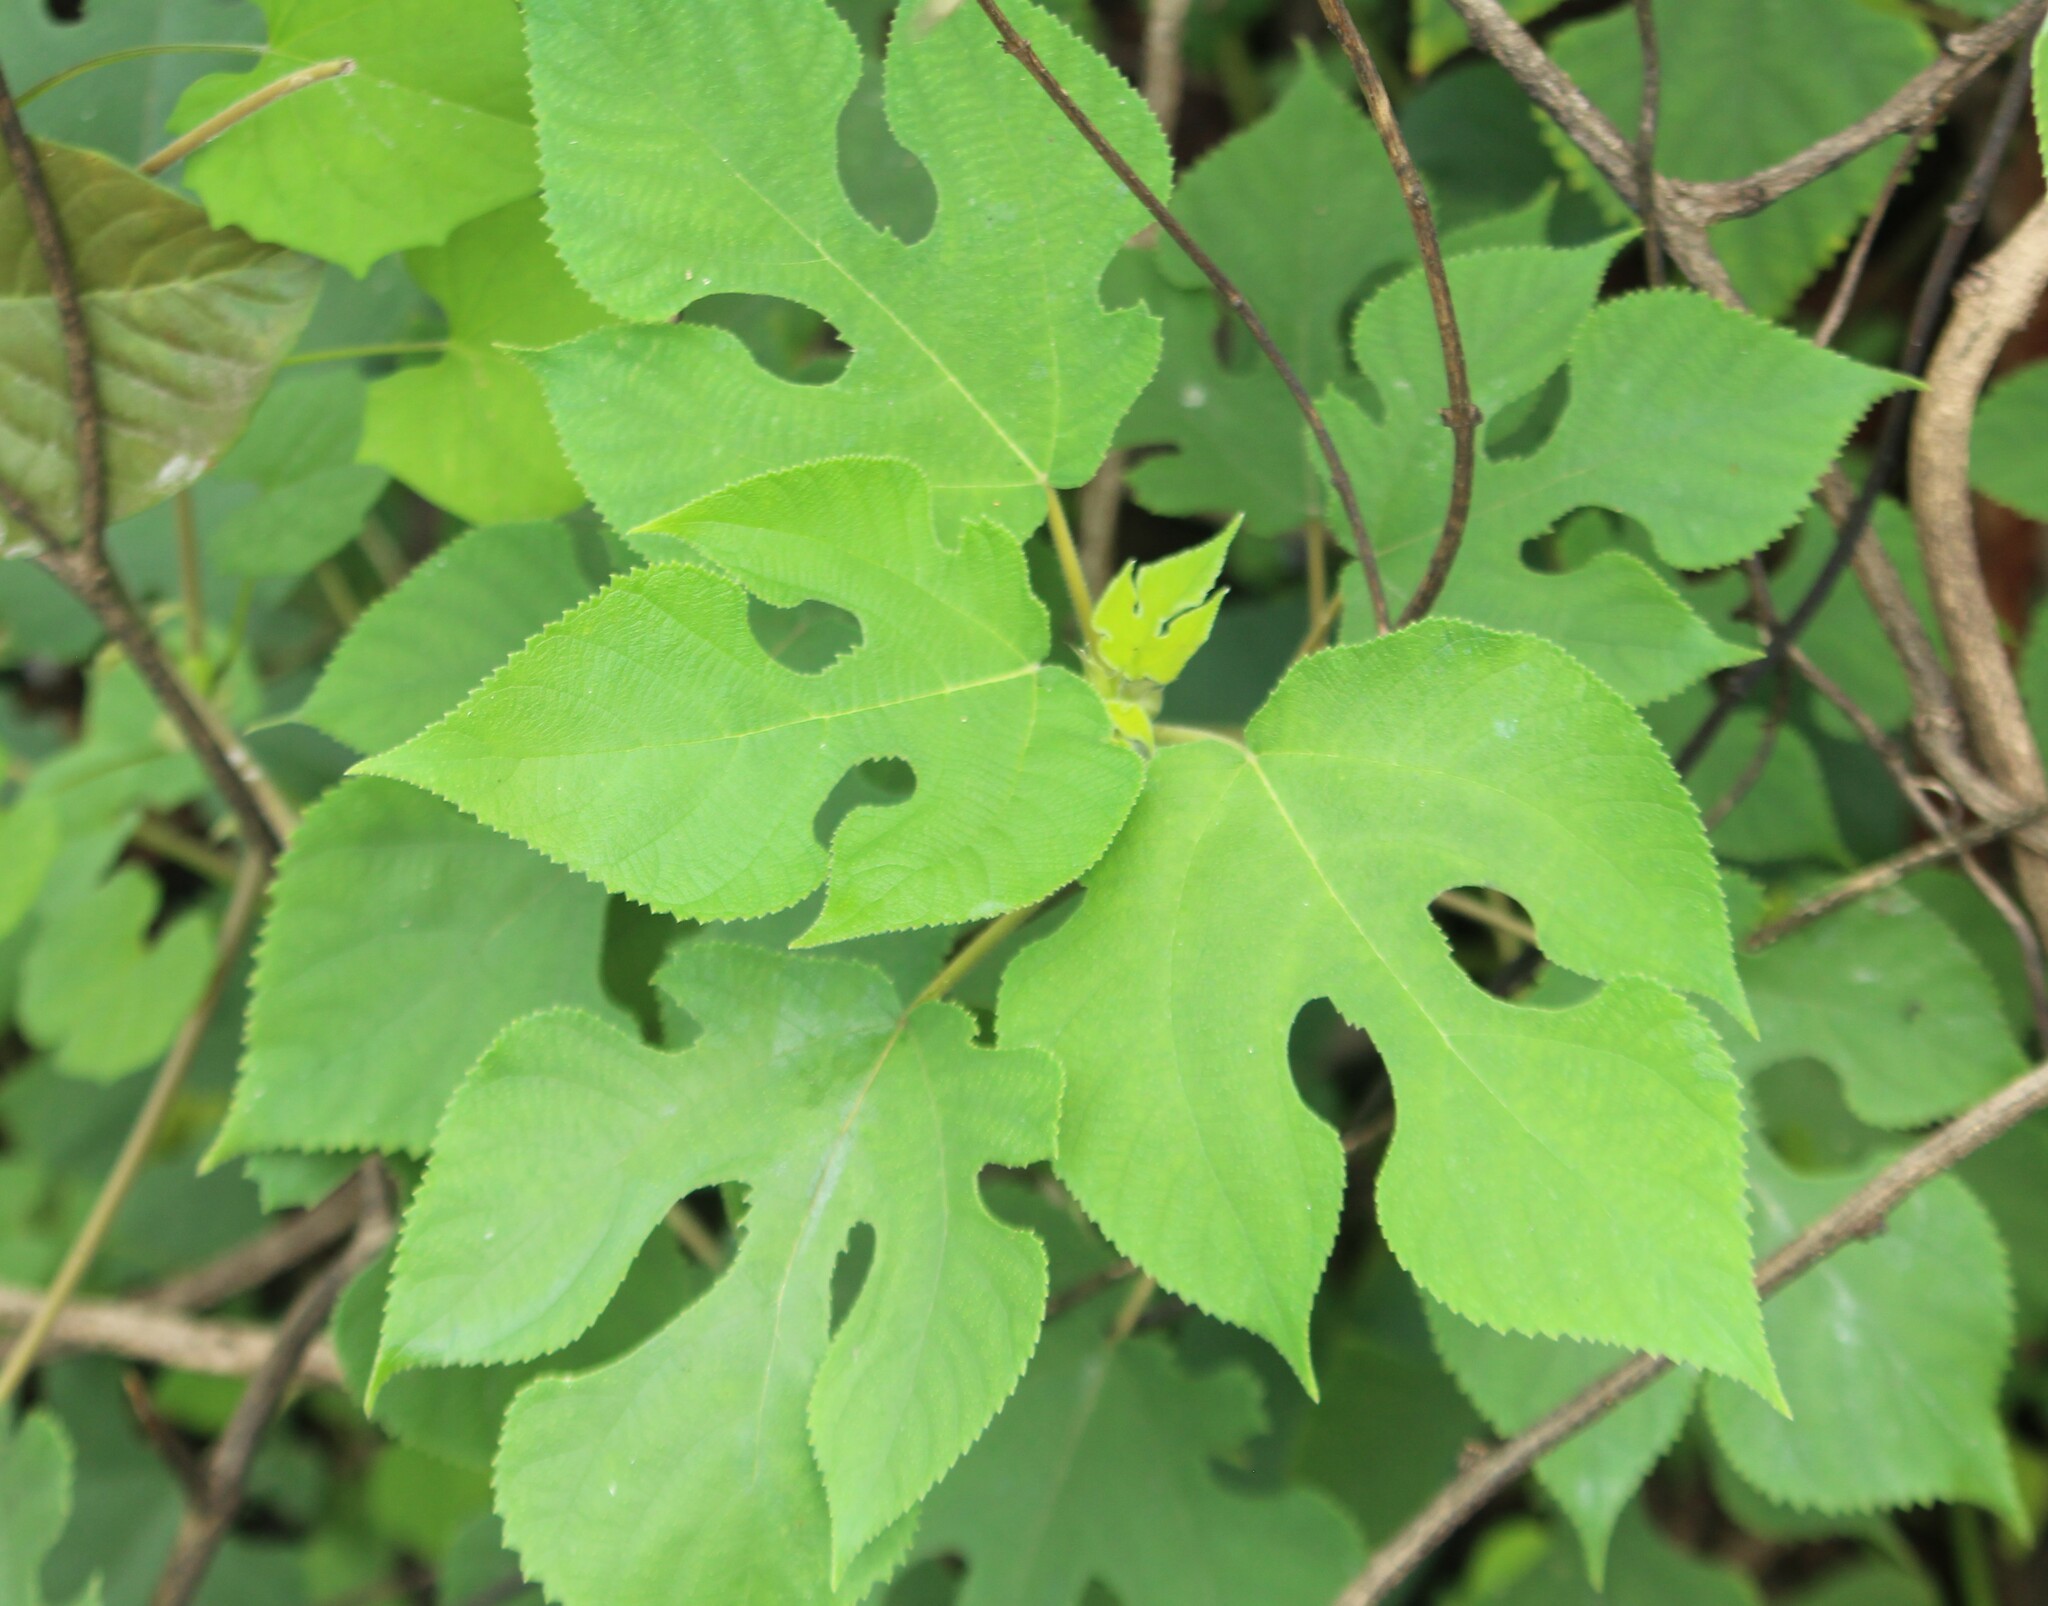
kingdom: Plantae
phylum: Tracheophyta
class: Magnoliopsida
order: Rosales
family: Moraceae
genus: Broussonetia
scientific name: Broussonetia papyrifera
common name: Paper mulberry
